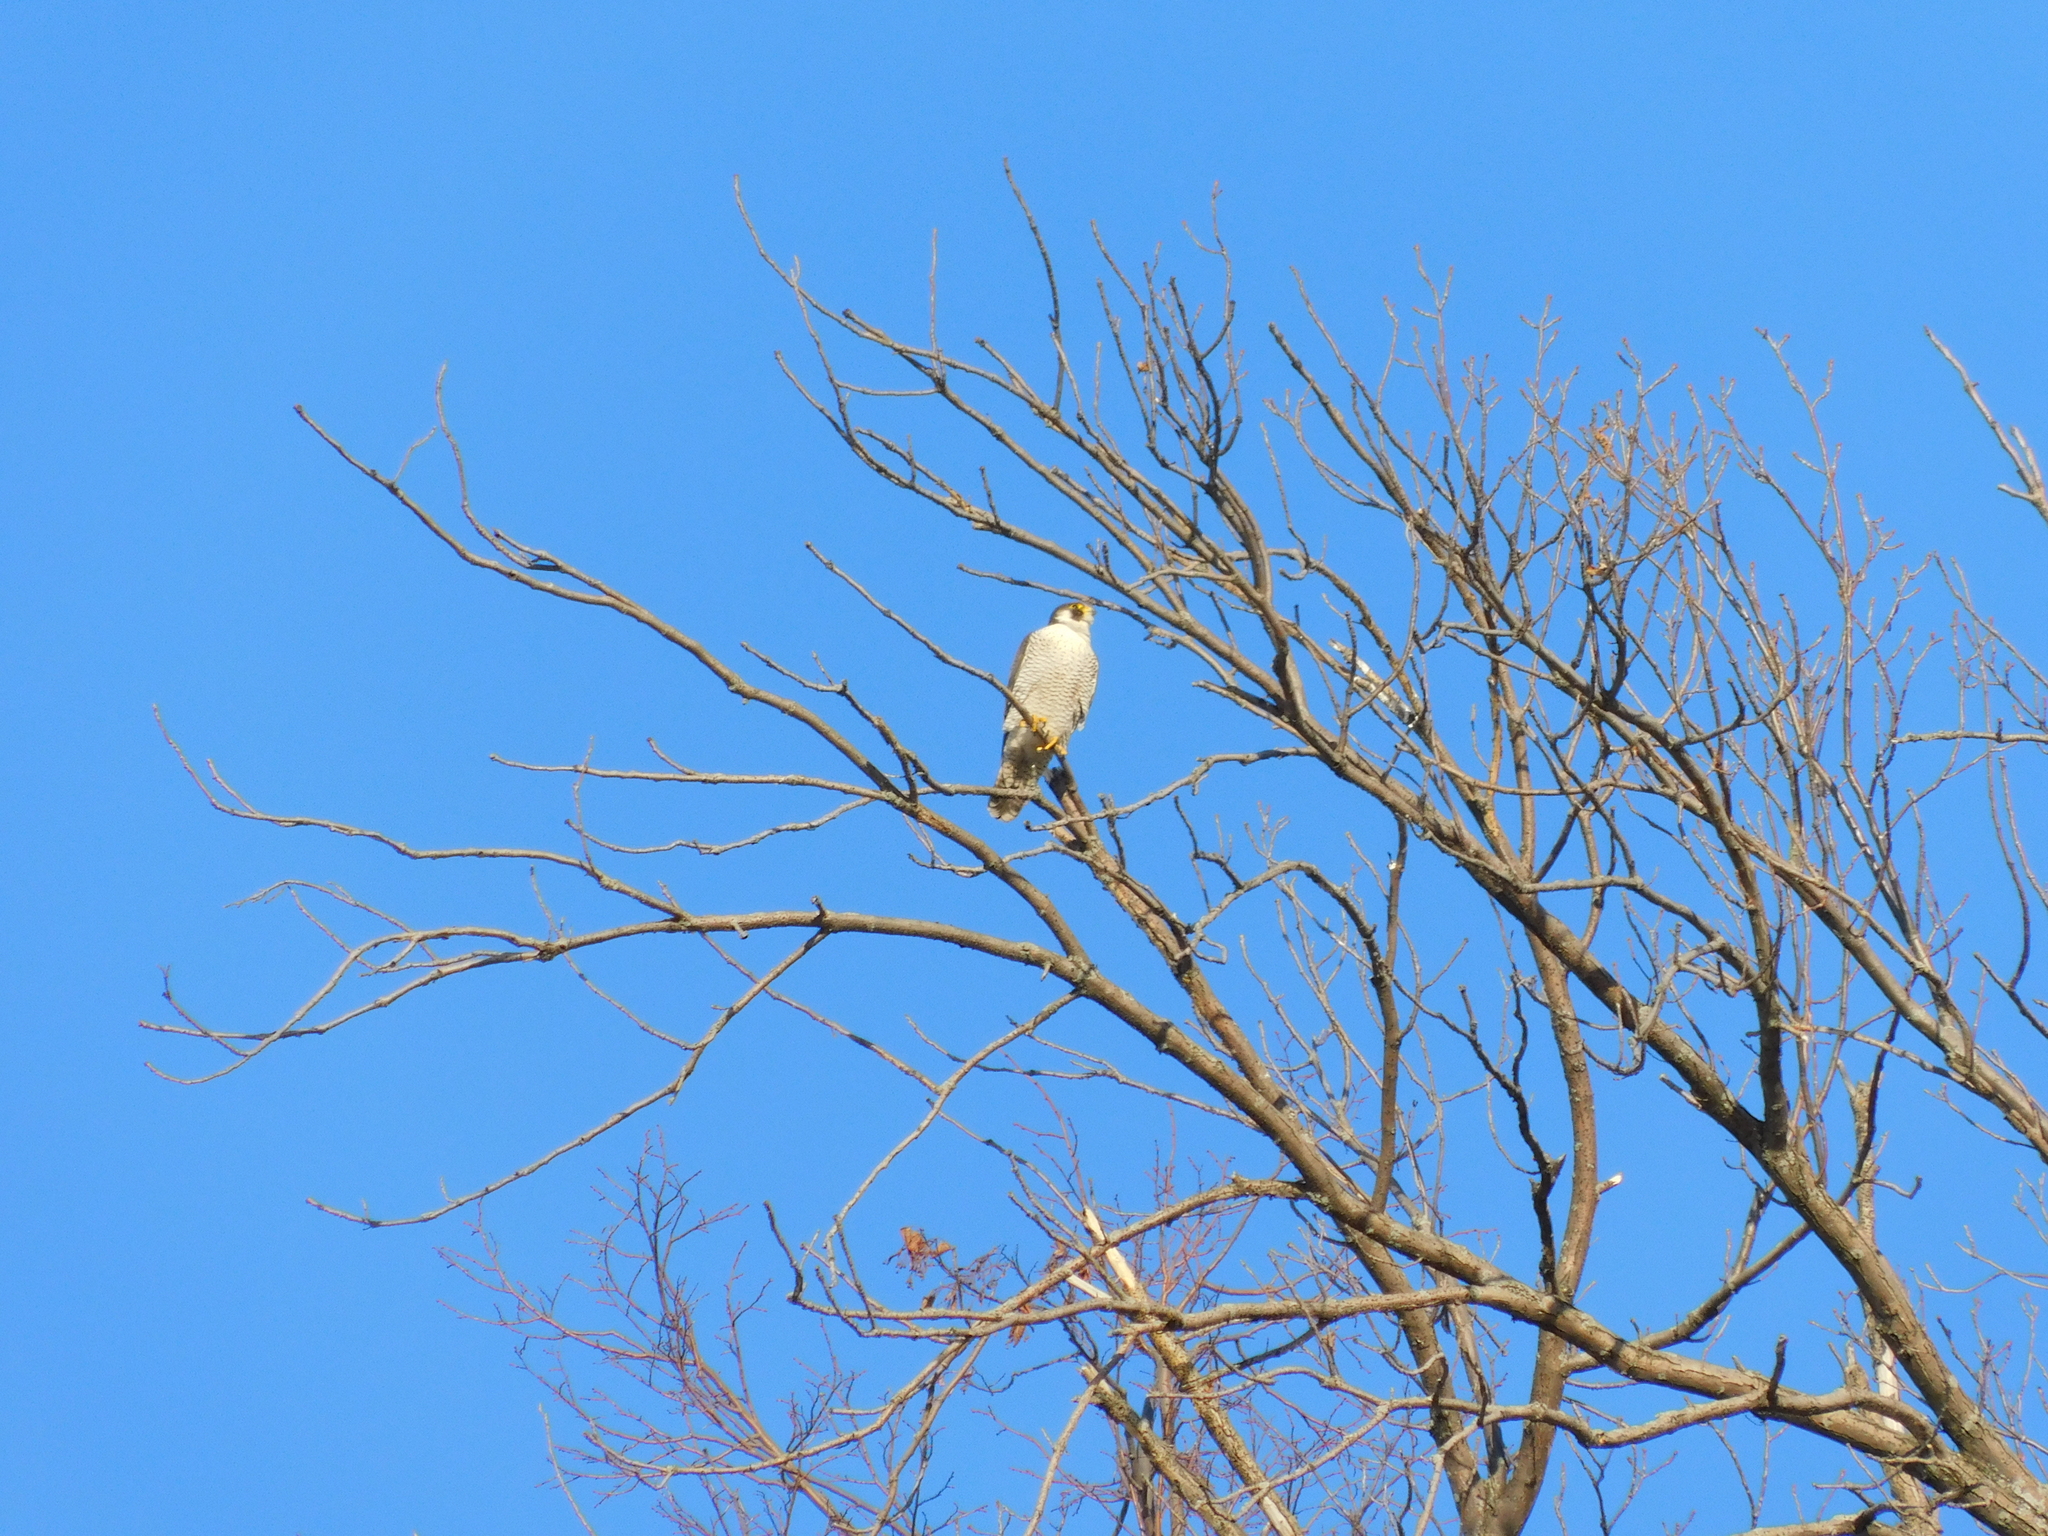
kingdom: Animalia
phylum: Chordata
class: Aves
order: Falconiformes
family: Falconidae
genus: Falco
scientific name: Falco peregrinus
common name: Peregrine falcon
